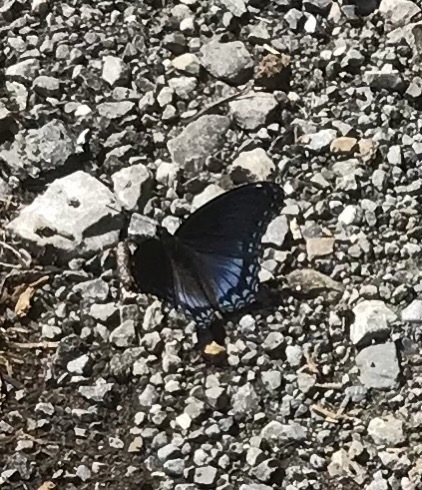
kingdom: Animalia
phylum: Arthropoda
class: Insecta
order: Lepidoptera
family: Nymphalidae
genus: Limenitis
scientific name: Limenitis arthemis
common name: Red-spotted admiral
